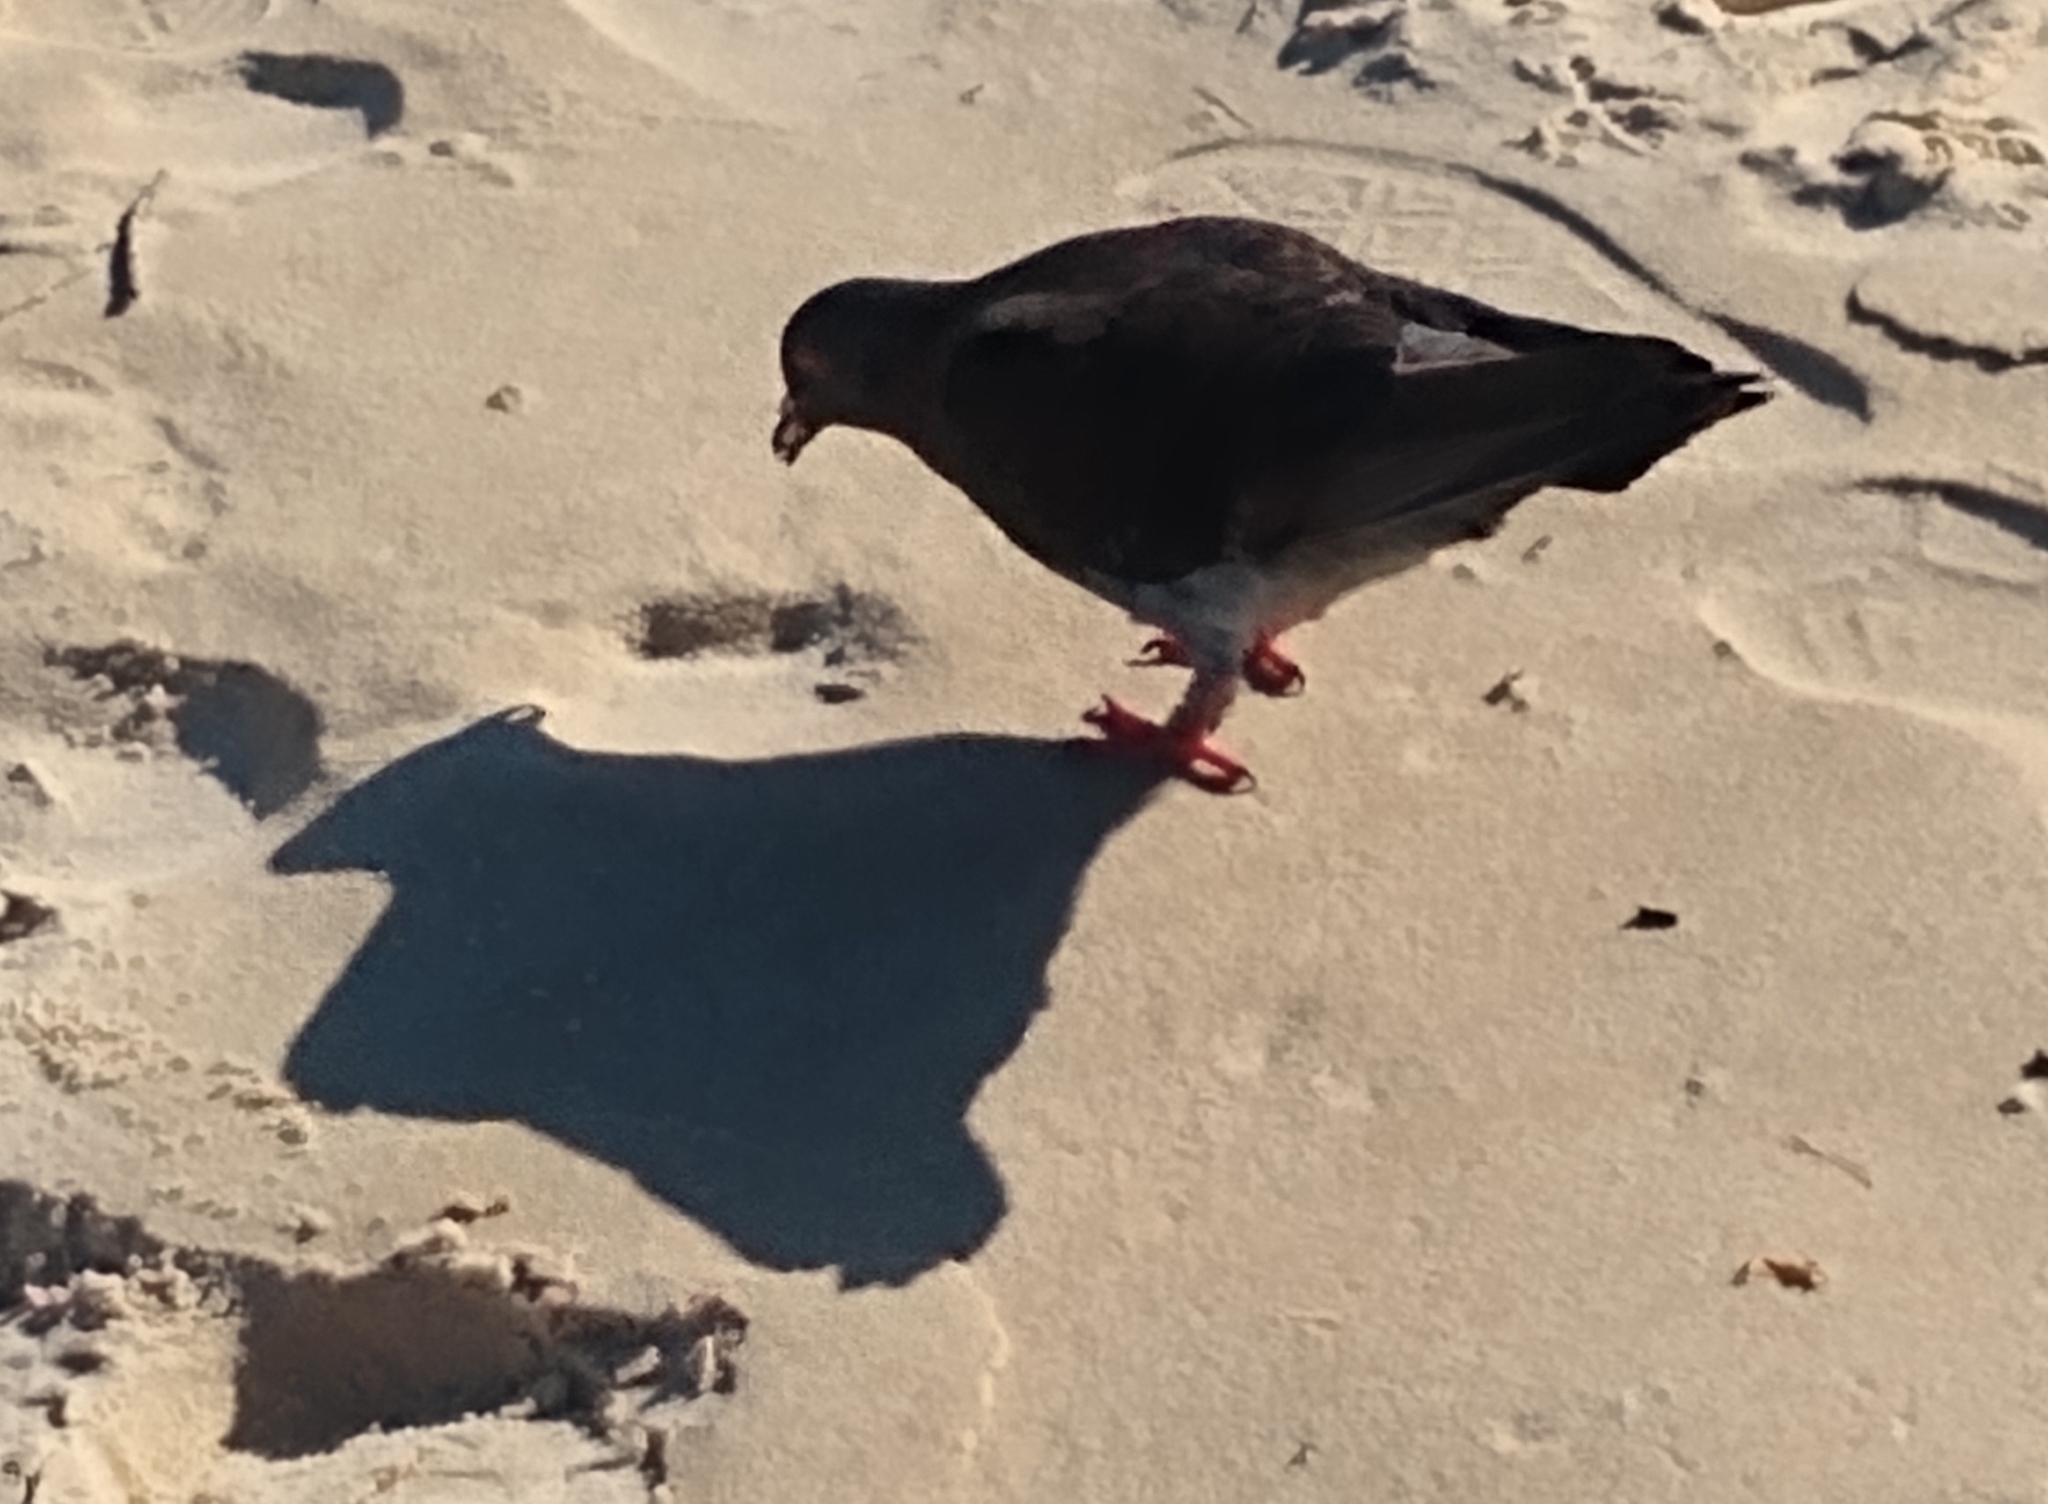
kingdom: Animalia
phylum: Chordata
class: Aves
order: Columbiformes
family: Columbidae
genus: Columba
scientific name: Columba livia
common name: Rock pigeon
